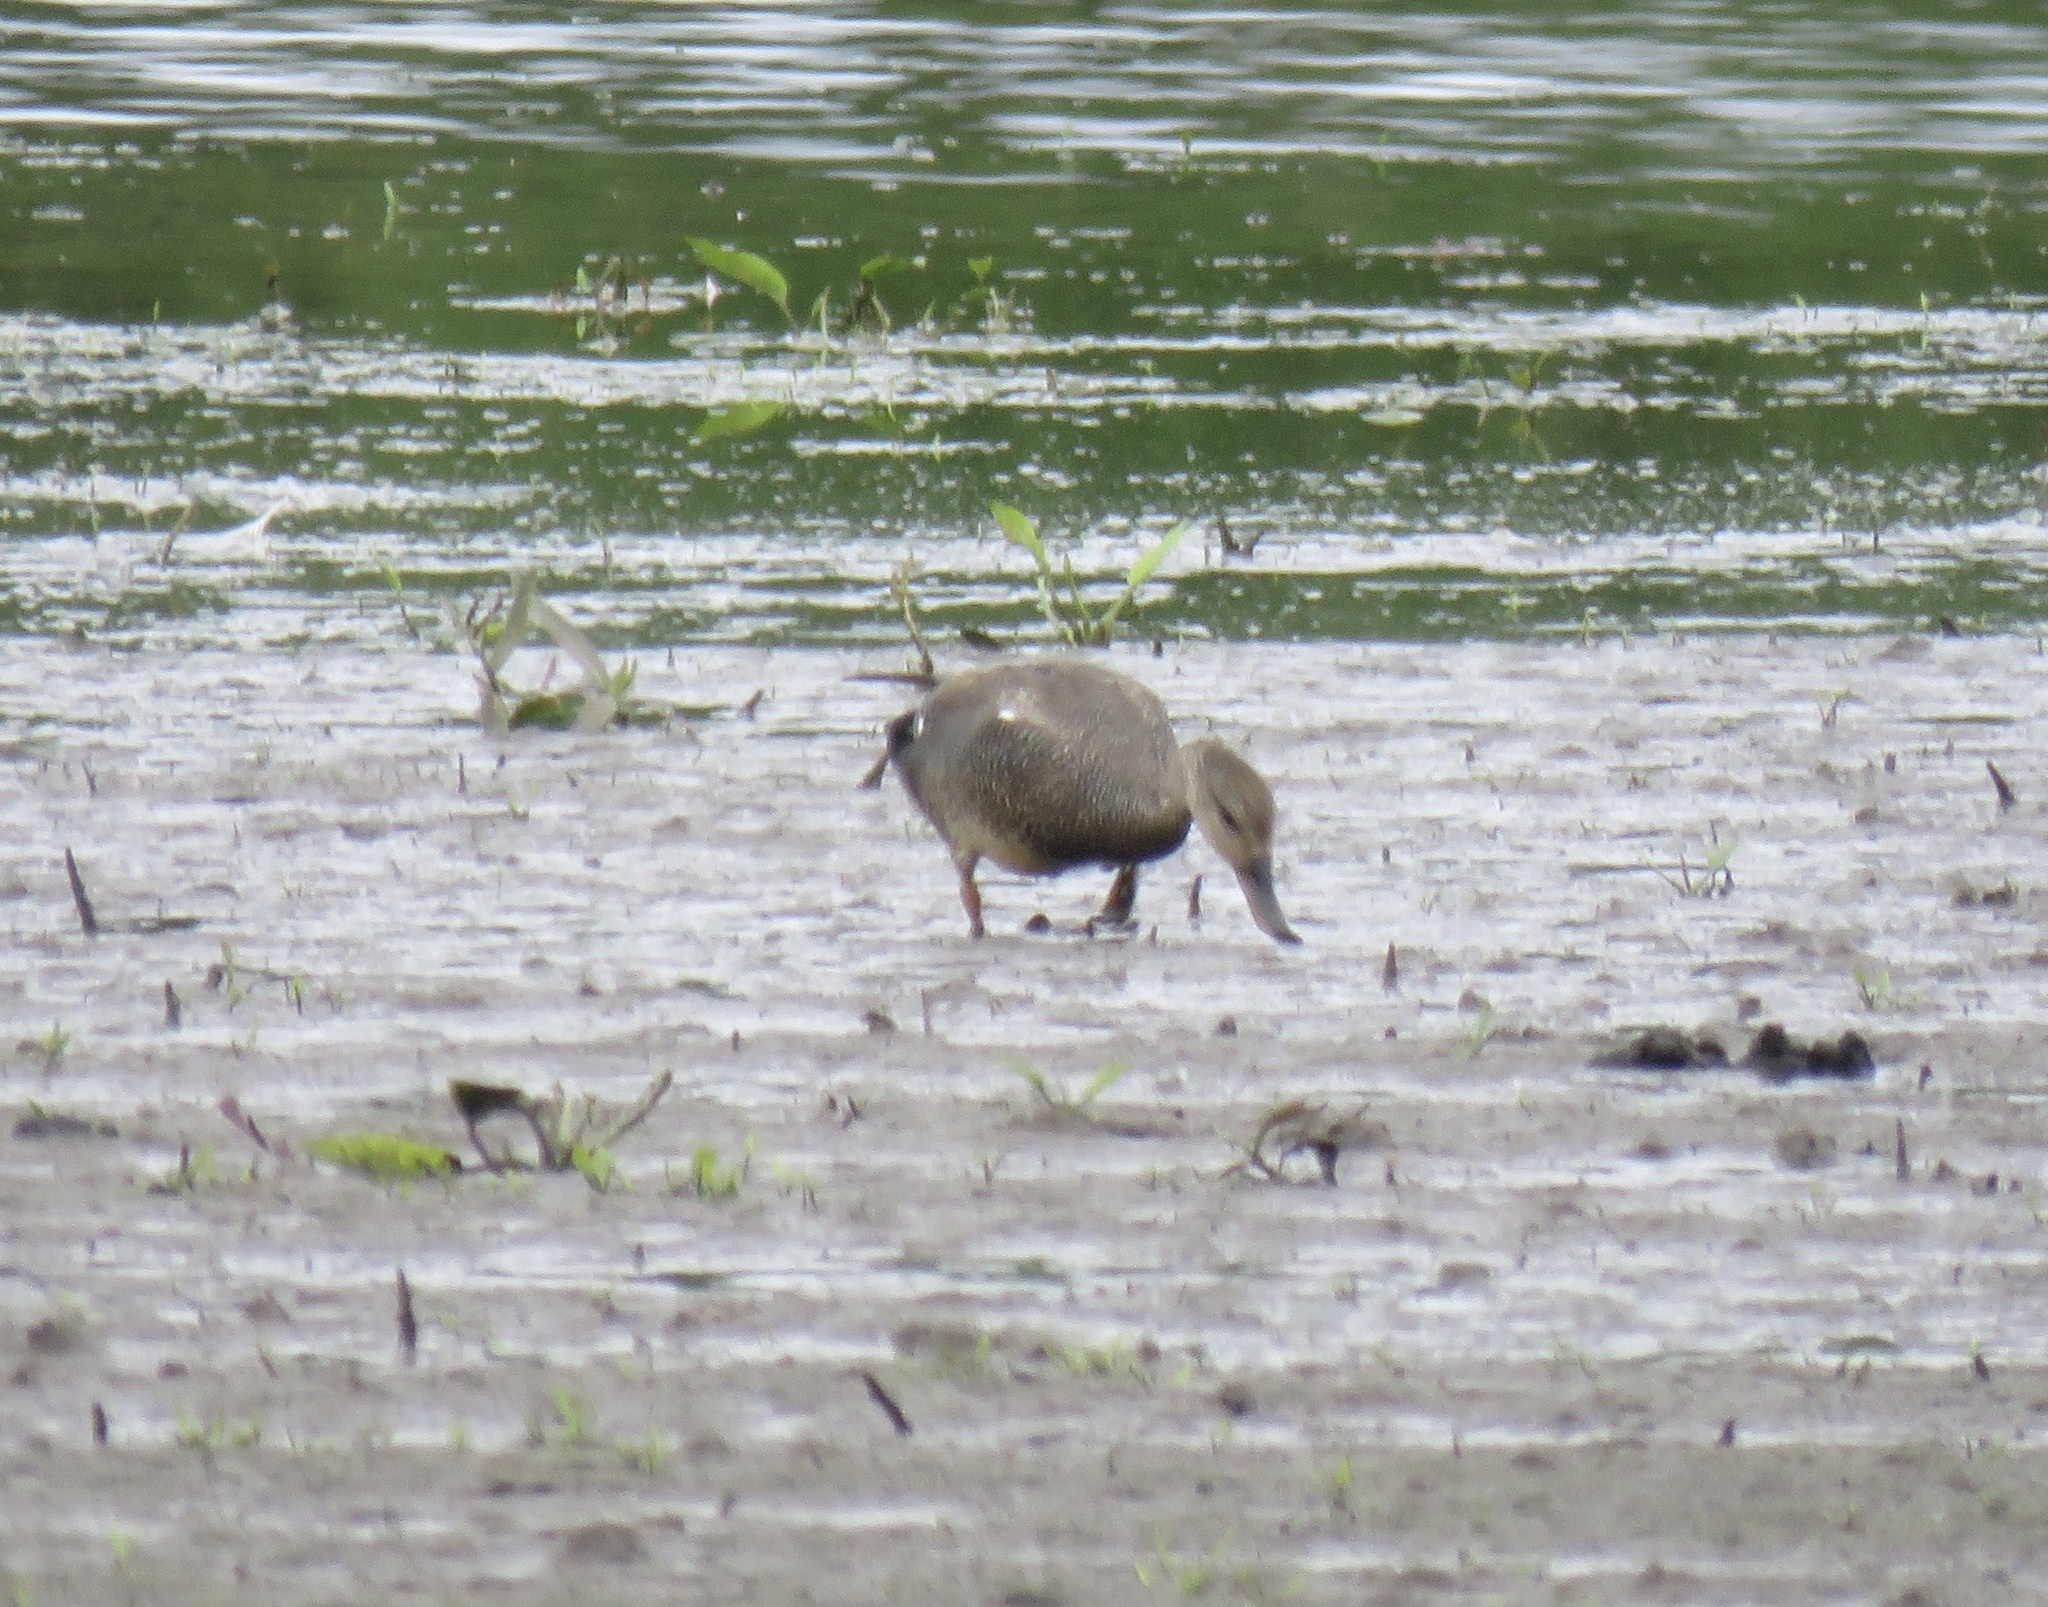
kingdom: Animalia
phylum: Chordata
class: Aves
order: Anseriformes
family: Anatidae
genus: Mareca
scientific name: Mareca strepera
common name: Gadwall
